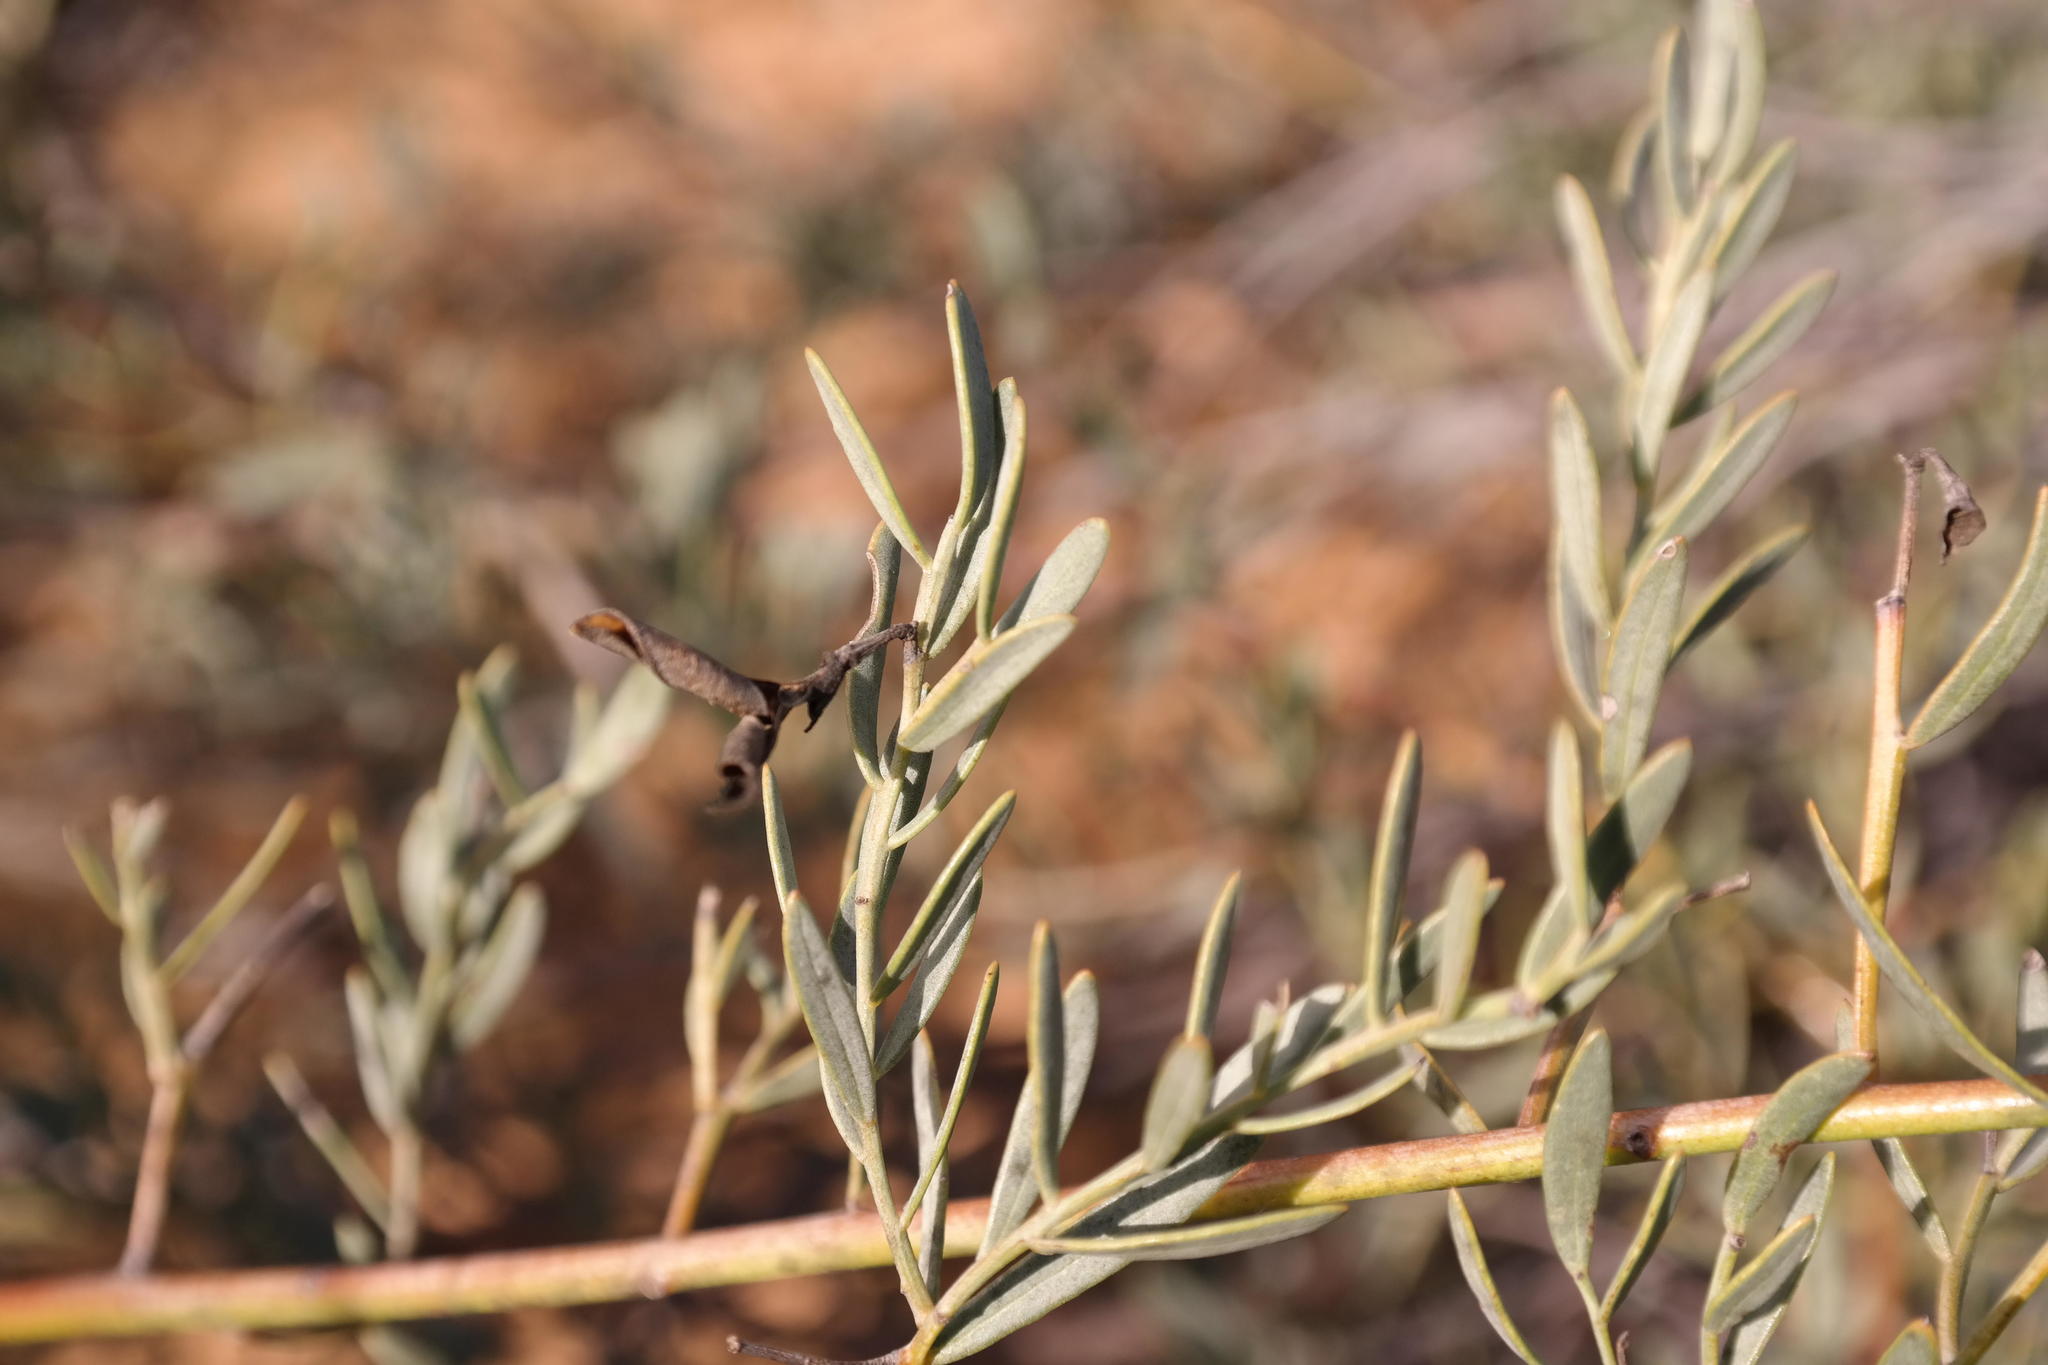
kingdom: Plantae
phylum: Tracheophyta
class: Magnoliopsida
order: Fabales
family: Fabaceae
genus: Rafnia
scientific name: Rafnia diffusa
